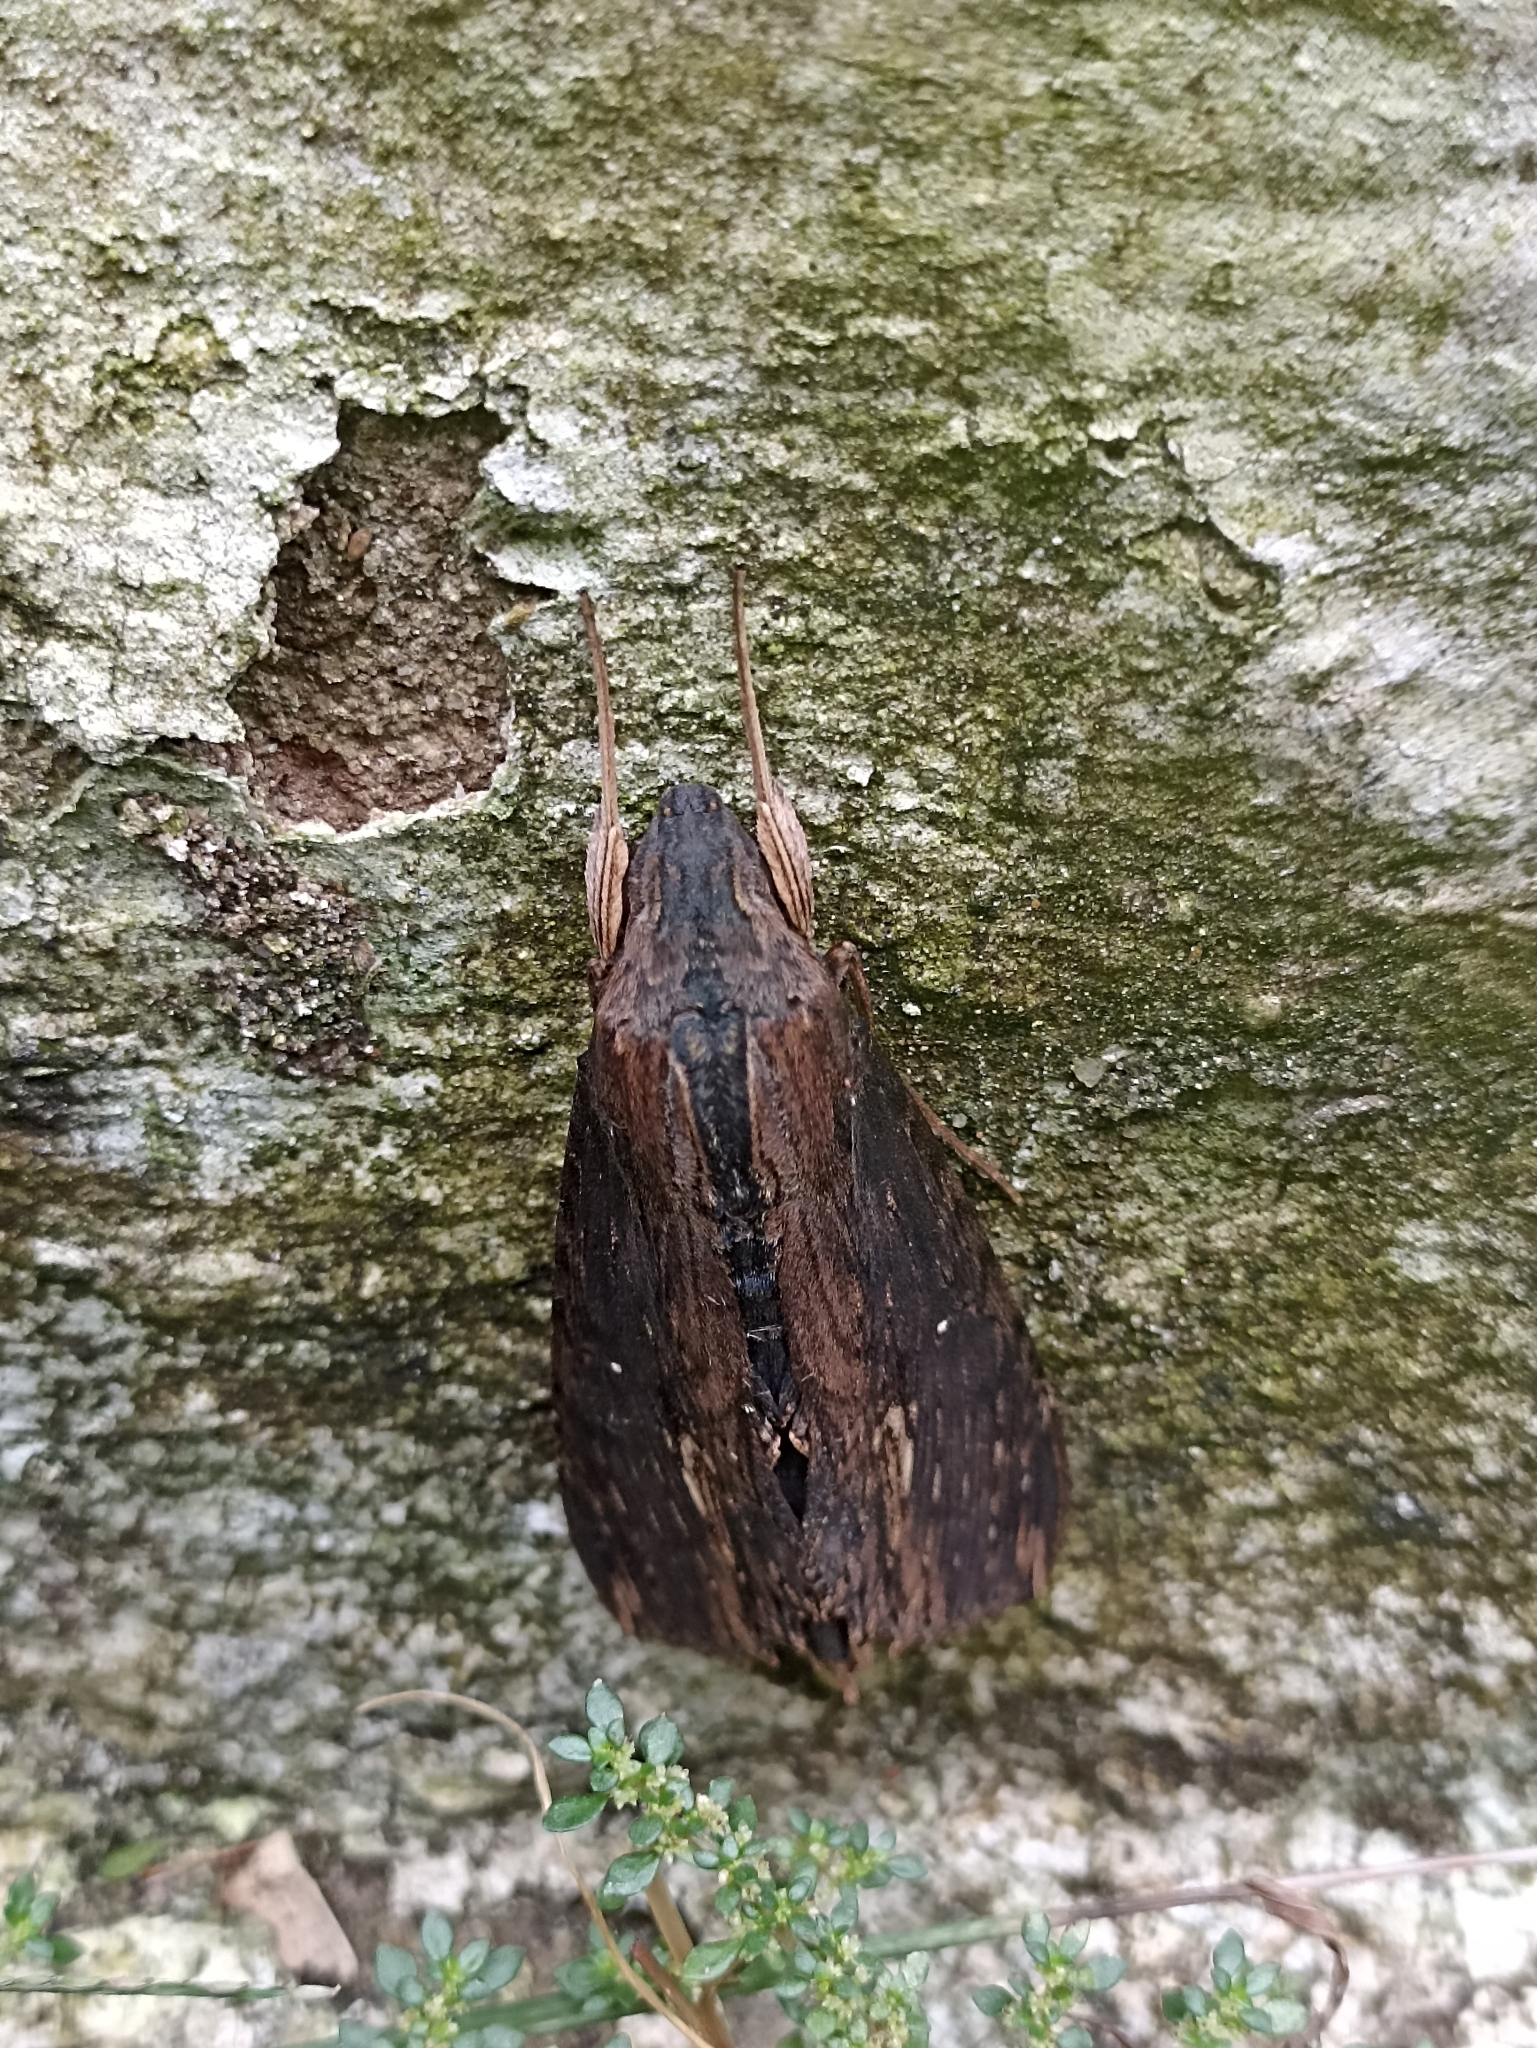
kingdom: Animalia
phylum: Arthropoda
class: Insecta
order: Lepidoptera
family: Sphingidae
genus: Erinnyis
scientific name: Erinnyis alope
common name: Alope sphinx
